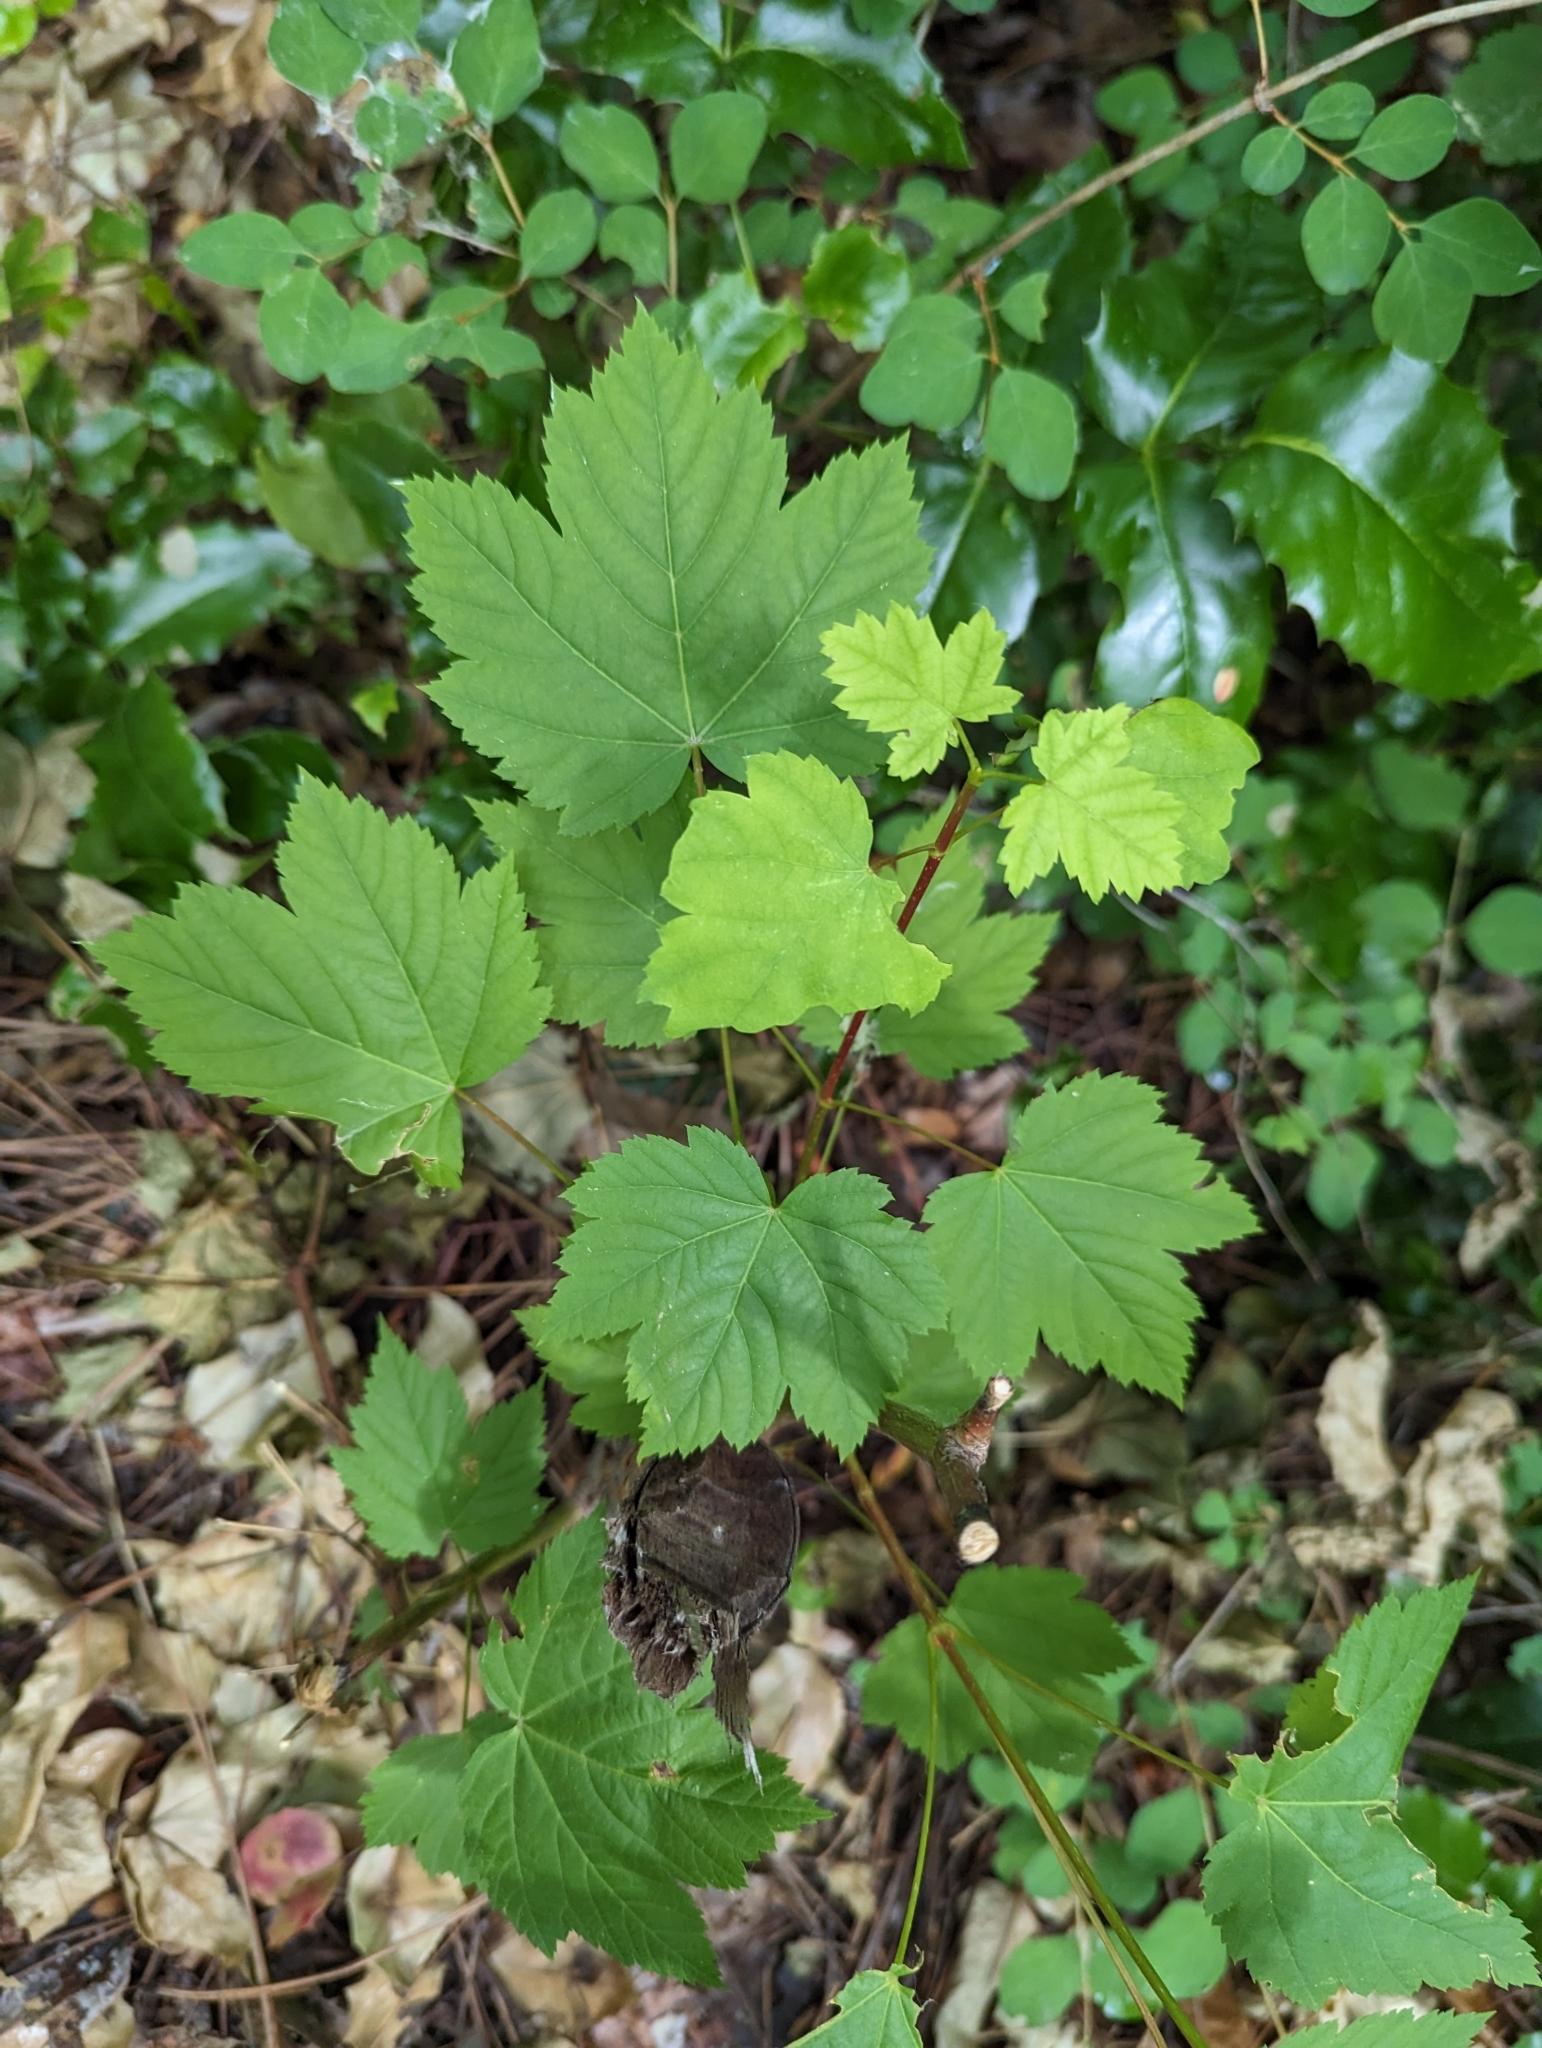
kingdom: Plantae
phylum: Tracheophyta
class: Magnoliopsida
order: Sapindales
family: Sapindaceae
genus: Acer
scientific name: Acer glabrum
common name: Rocky mountain maple
